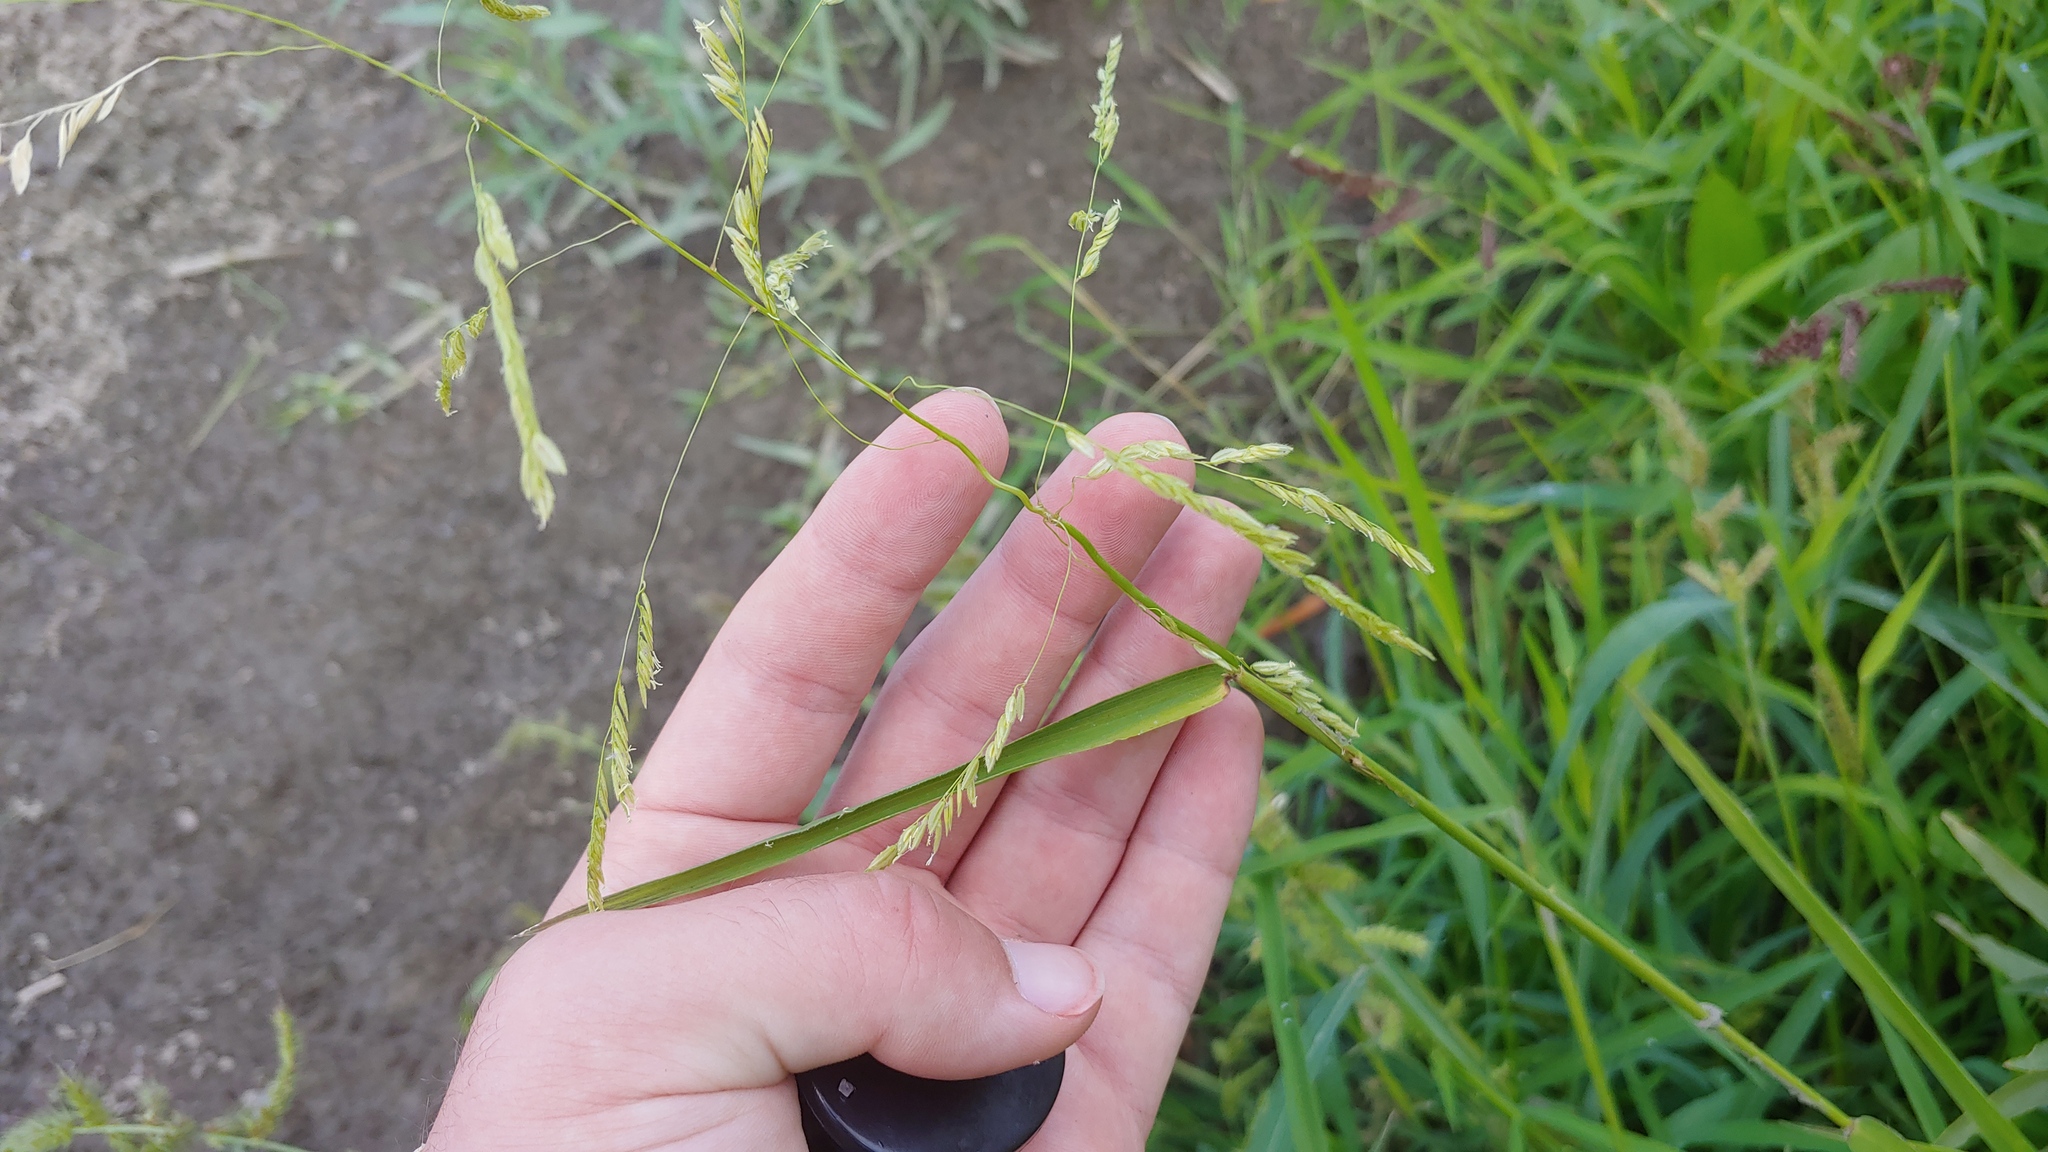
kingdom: Plantae
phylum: Tracheophyta
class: Liliopsida
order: Poales
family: Poaceae
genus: Leersia
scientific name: Leersia oryzoides
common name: Cut-grass
